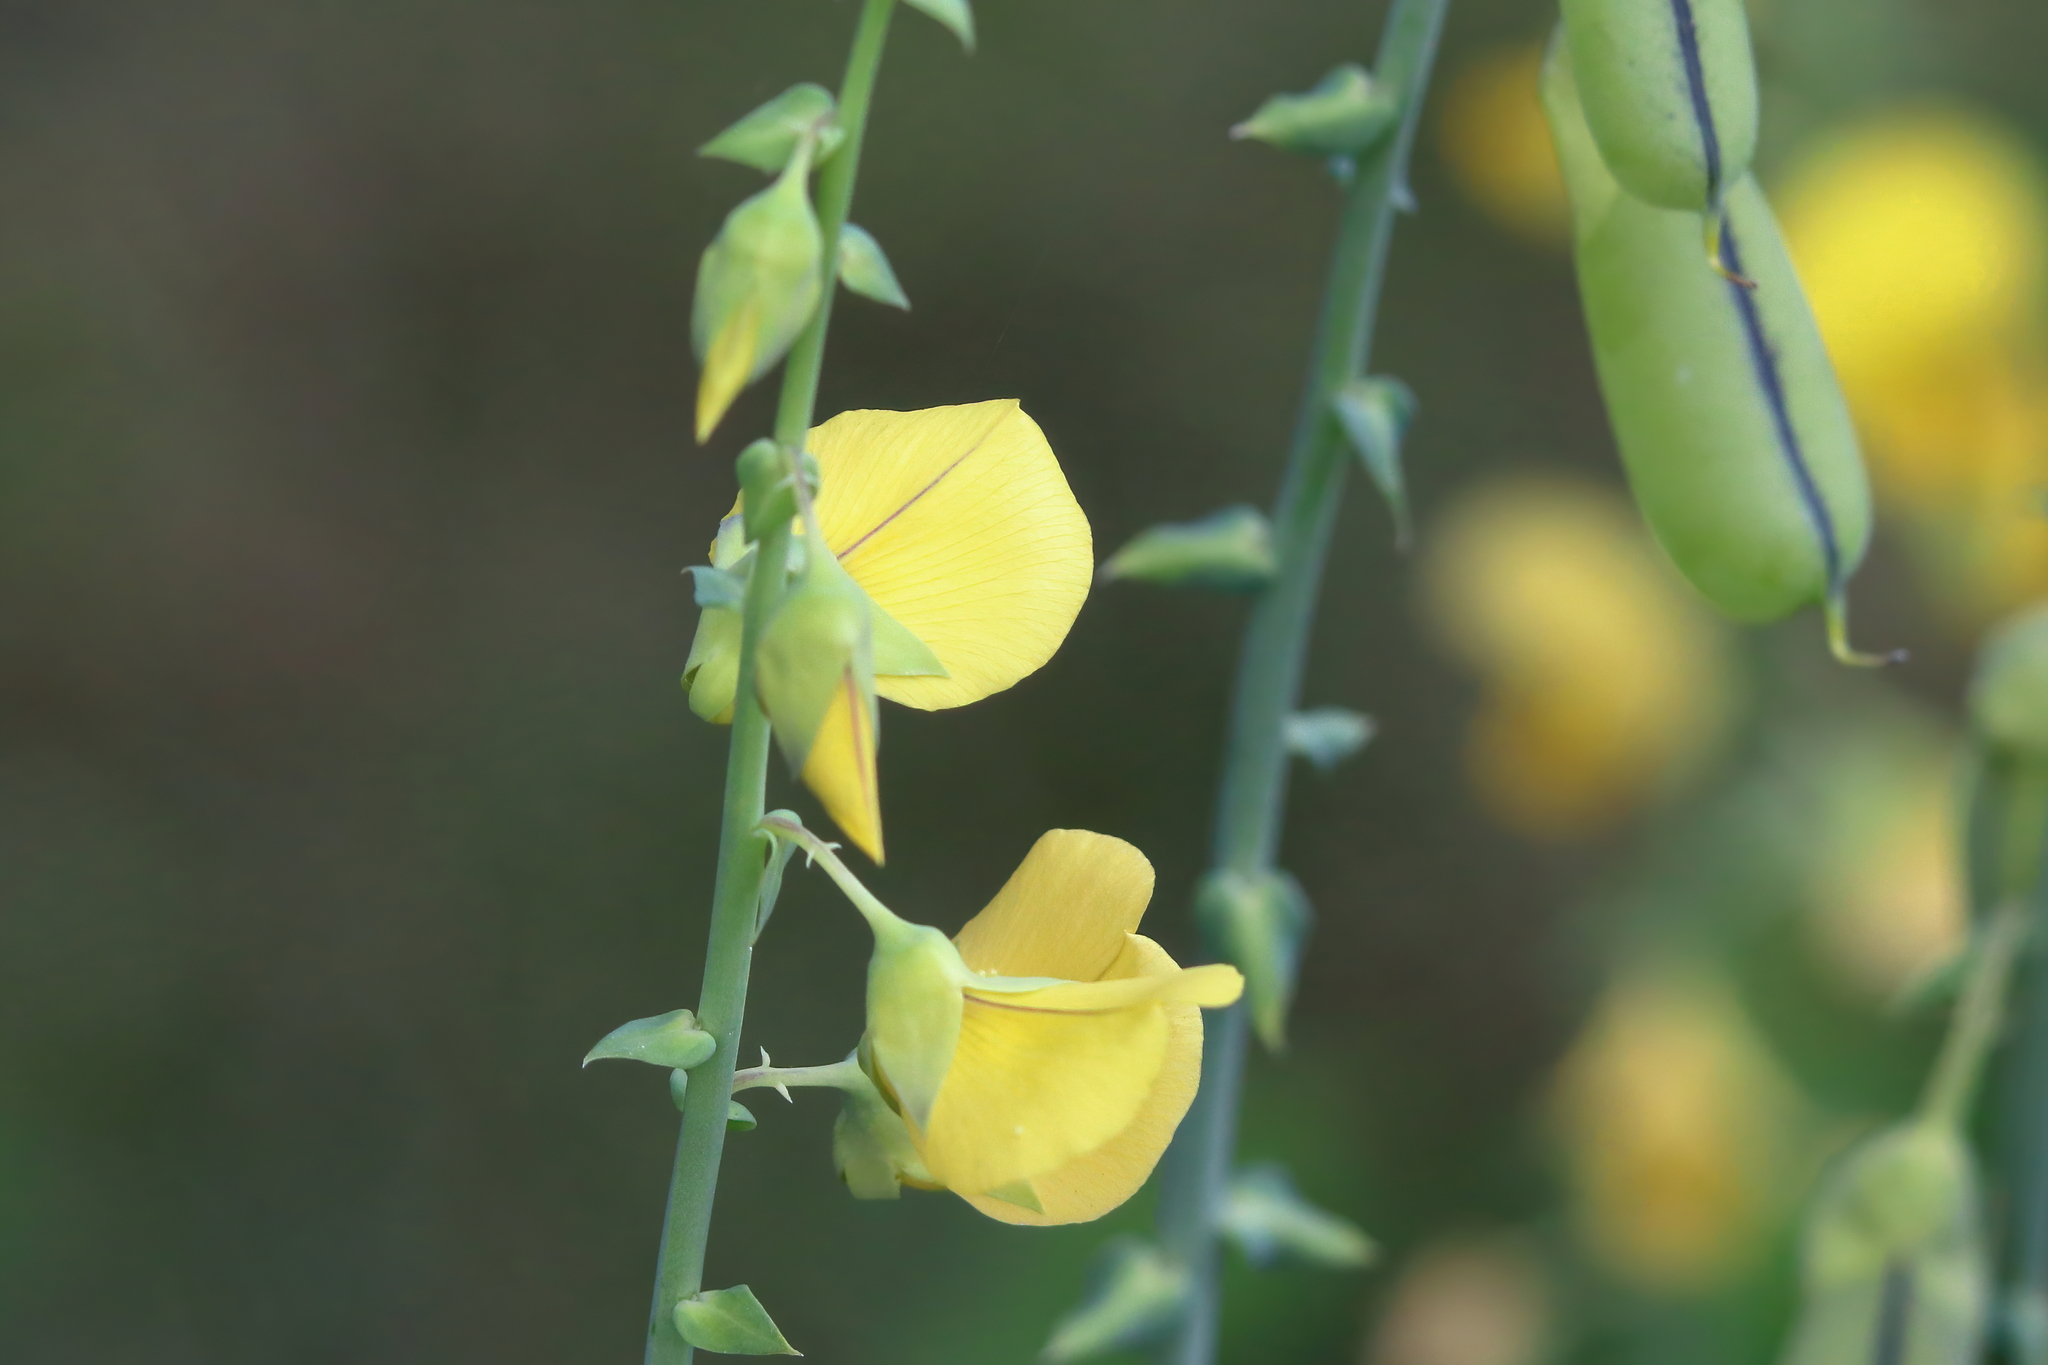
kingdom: Plantae
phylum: Tracheophyta
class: Magnoliopsida
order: Fabales
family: Fabaceae
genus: Crotalaria
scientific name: Crotalaria spectabilis
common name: Showy rattlebox
